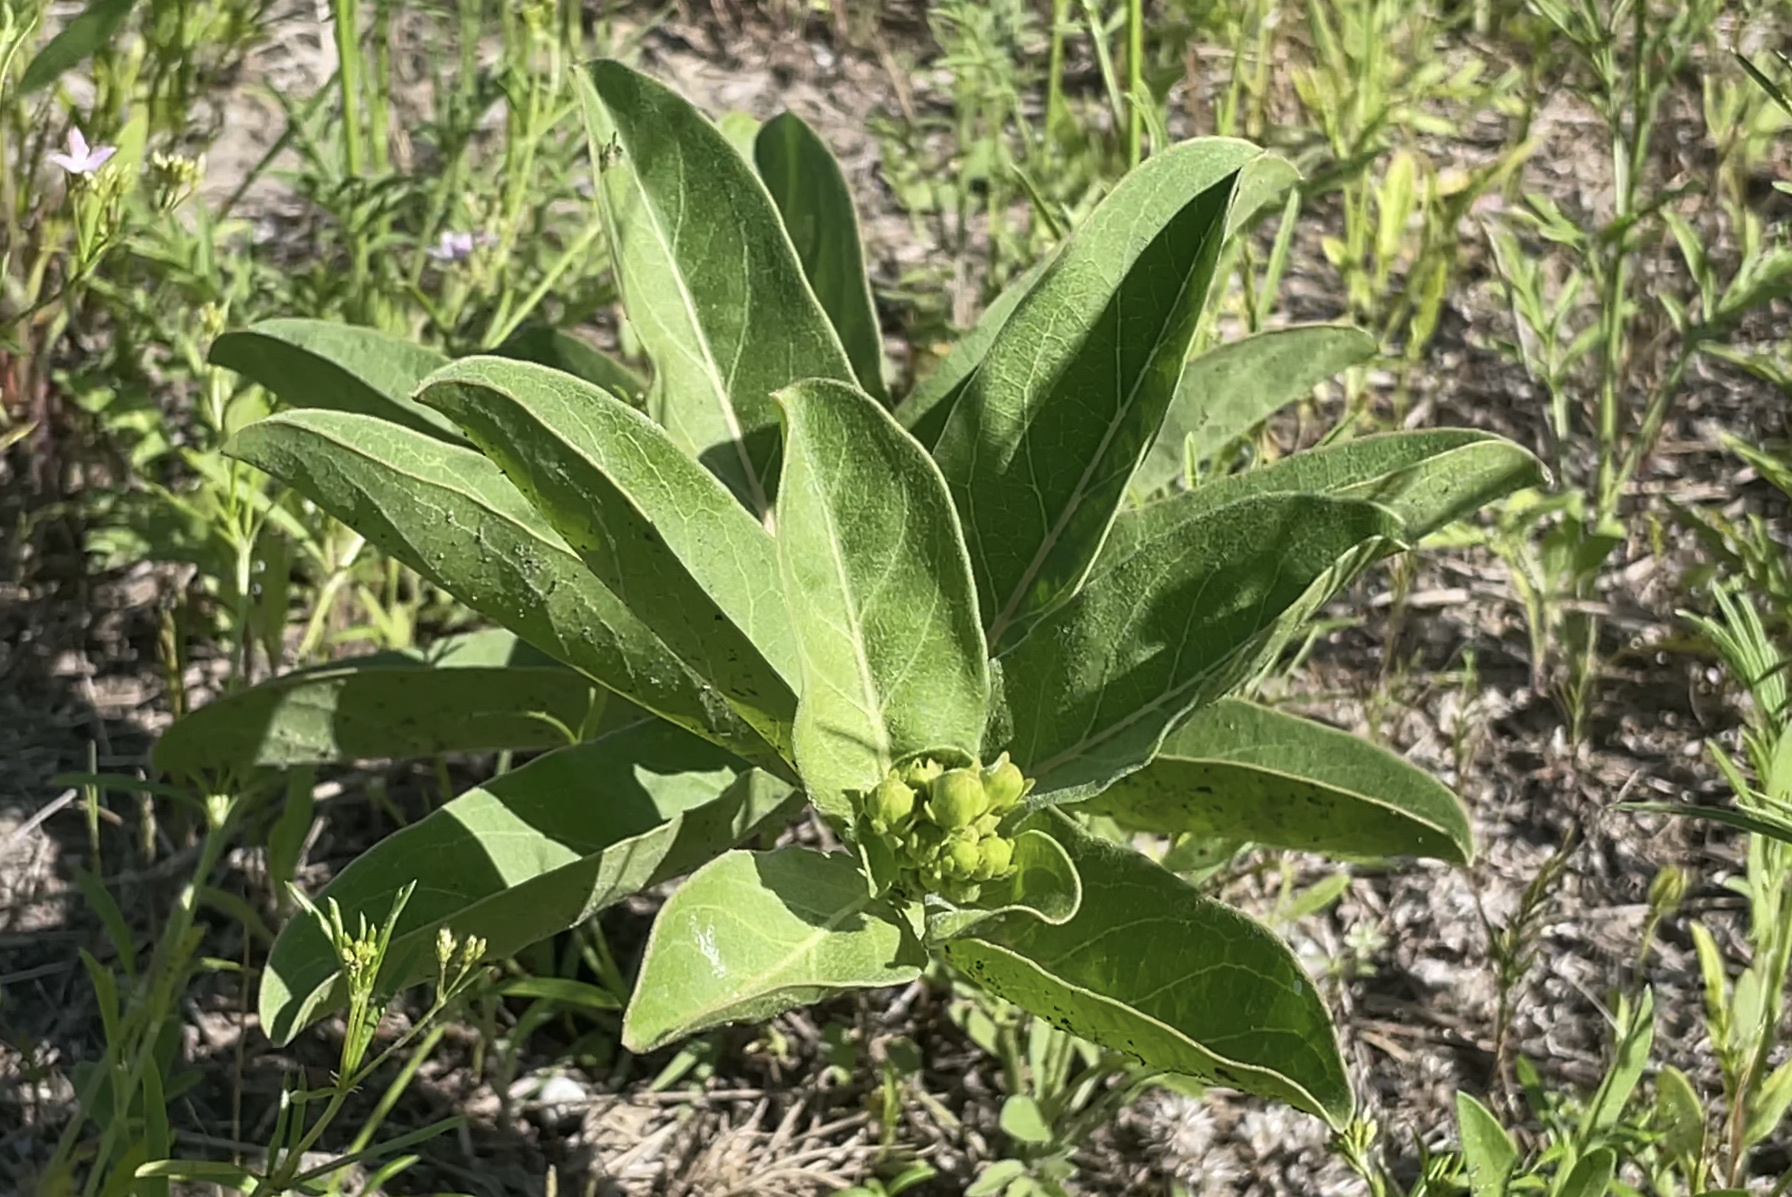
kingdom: Plantae
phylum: Tracheophyta
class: Magnoliopsida
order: Gentianales
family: Apocynaceae
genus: Asclepias
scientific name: Asclepias viridis
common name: Antelope-horns
